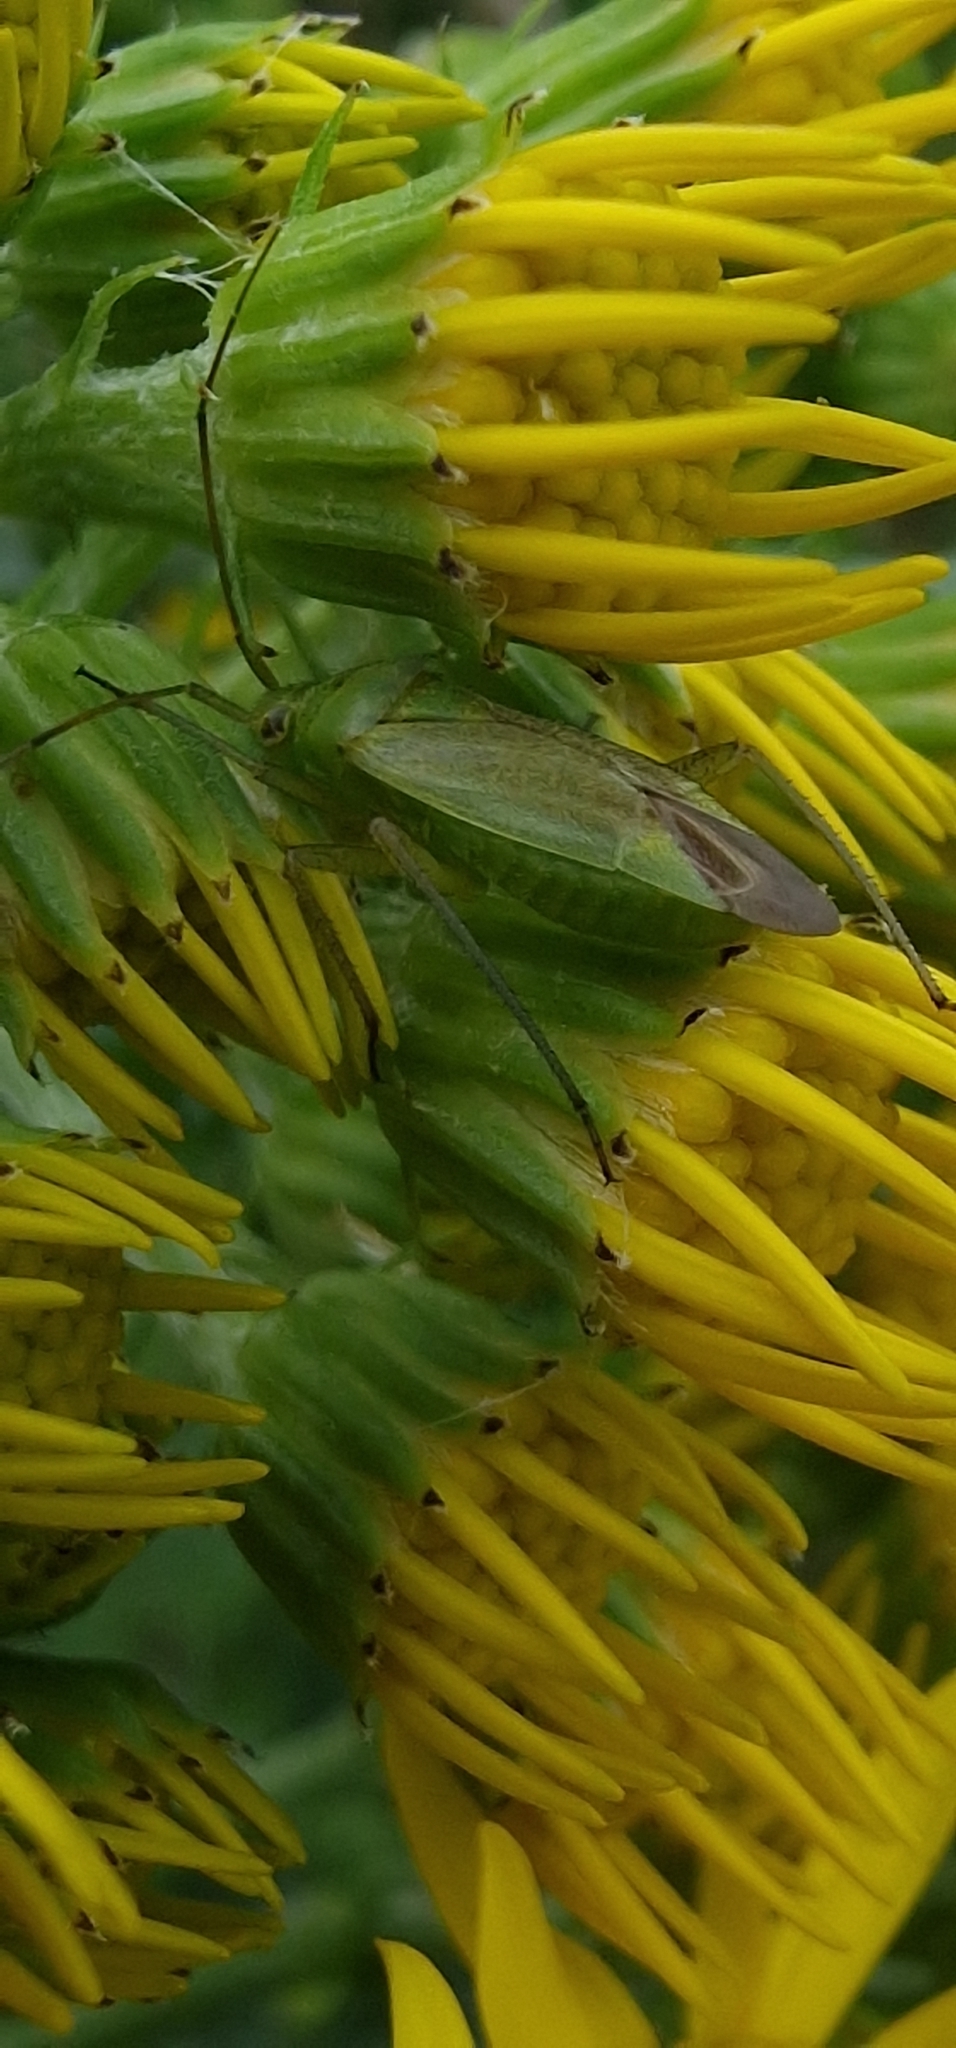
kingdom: Animalia
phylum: Arthropoda
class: Insecta
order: Hemiptera
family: Miridae
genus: Closterotomus
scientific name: Closterotomus norvegicus
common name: Plant bug
